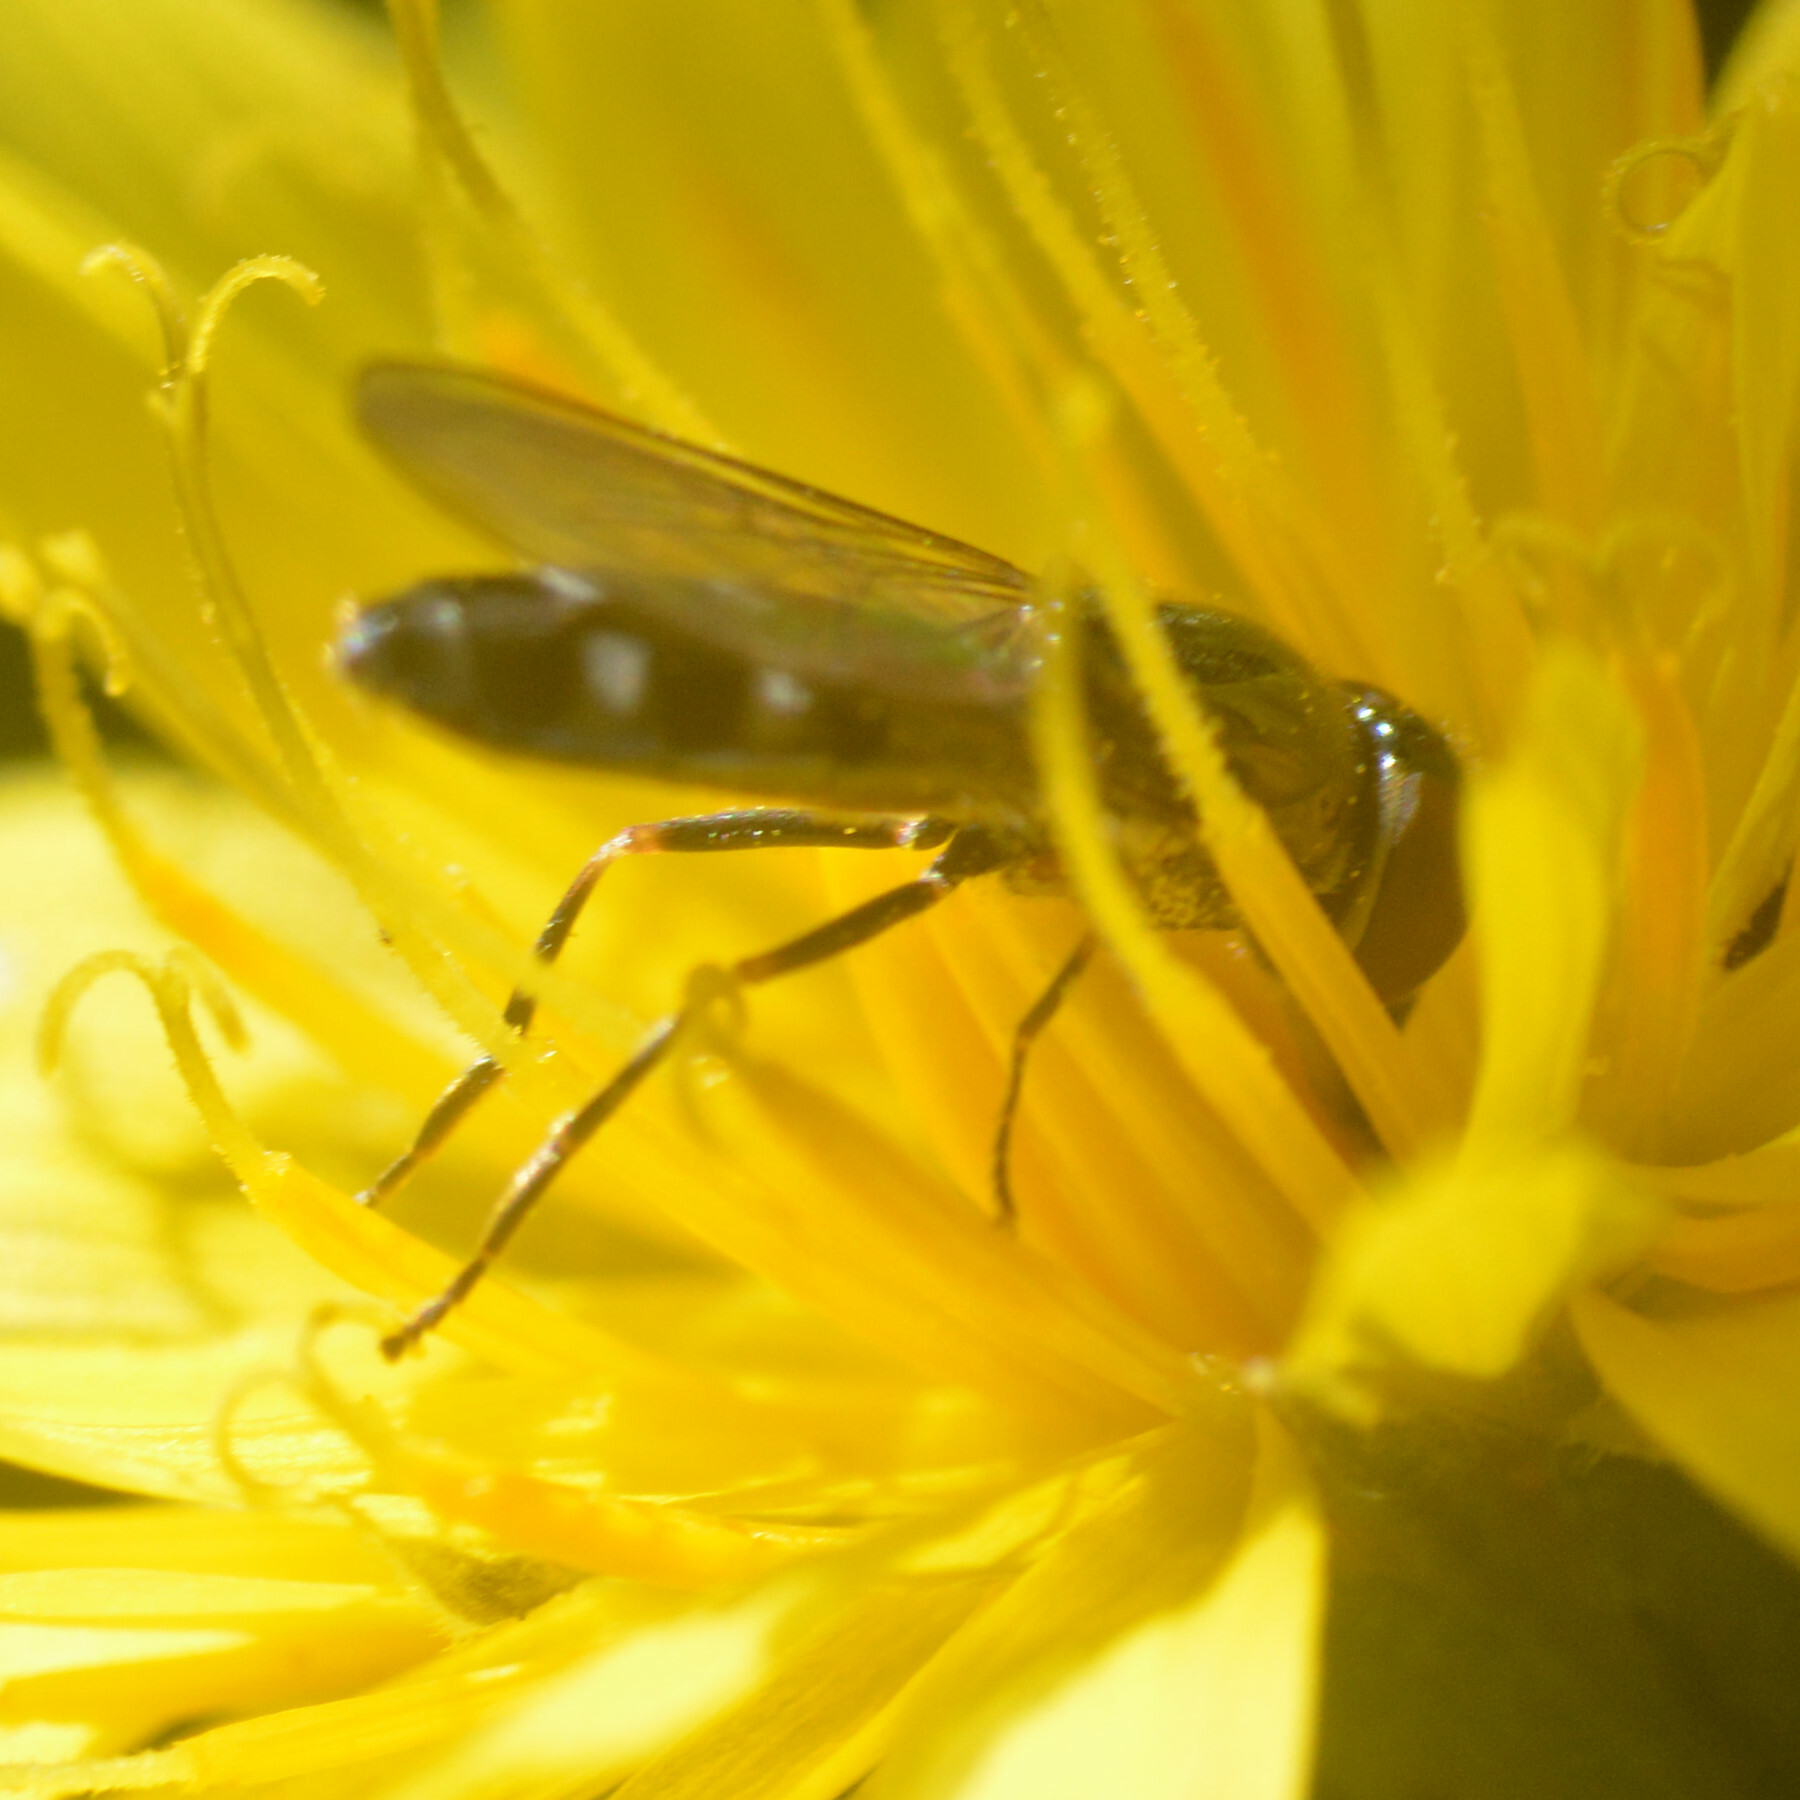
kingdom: Animalia
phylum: Arthropoda
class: Insecta
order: Diptera
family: Syrphidae
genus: Platycheirus
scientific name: Platycheirus albimanus
